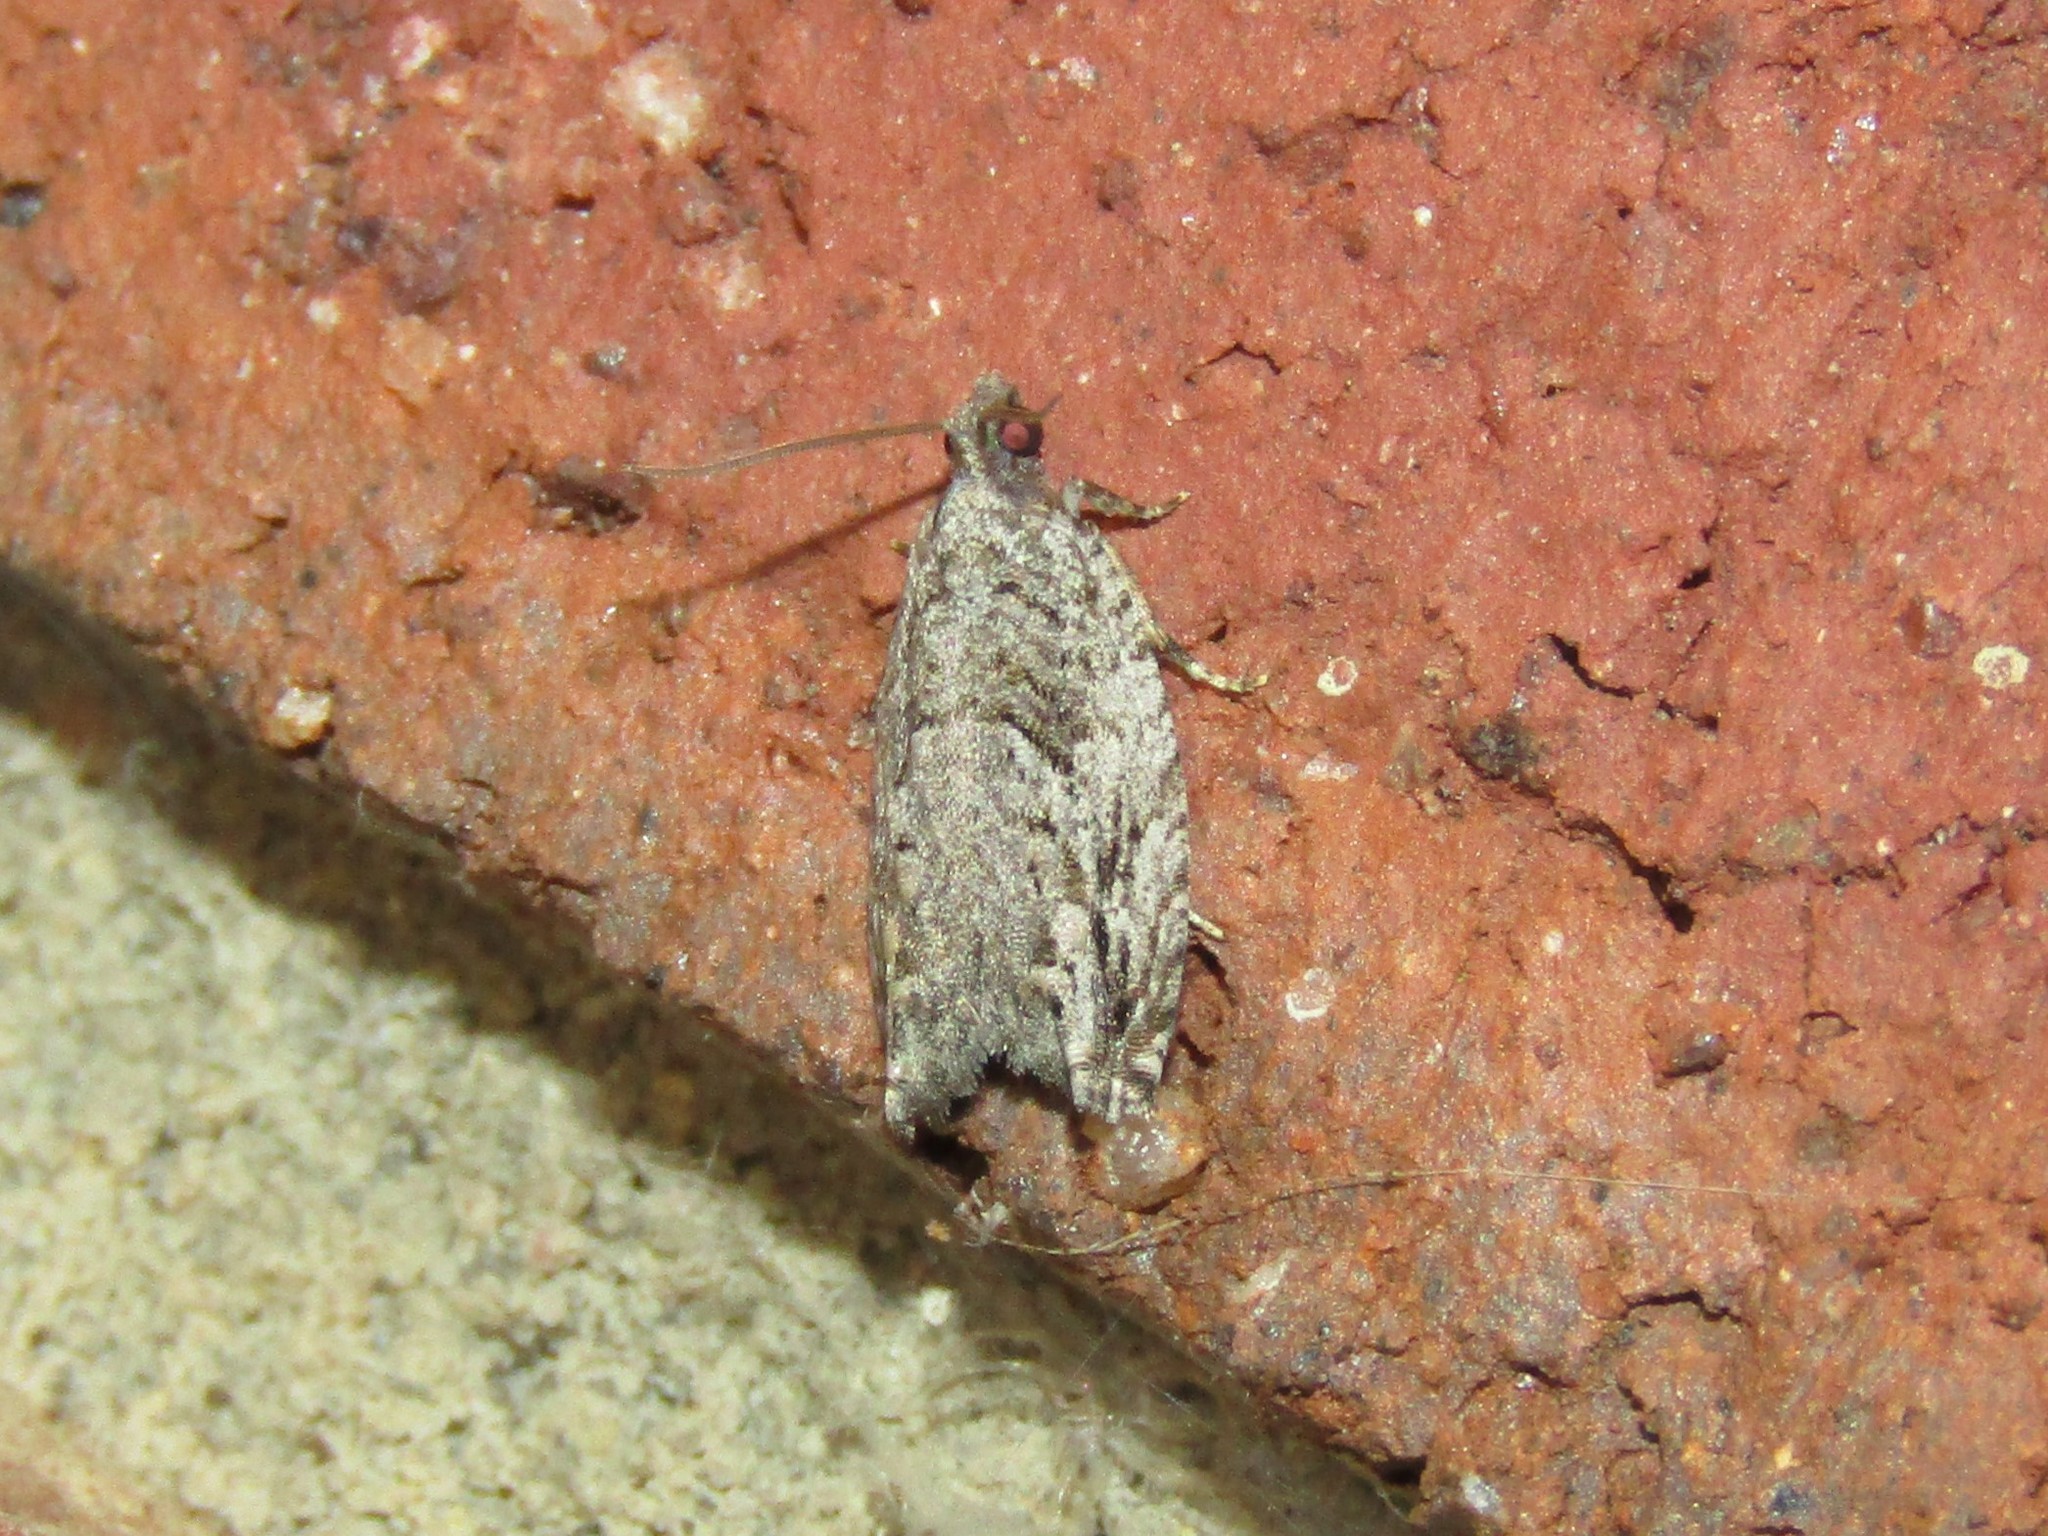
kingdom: Animalia
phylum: Arthropoda
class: Insecta
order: Lepidoptera
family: Tortricidae
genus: Gretchena
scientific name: Gretchena deludana
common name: Arrowhead moth
